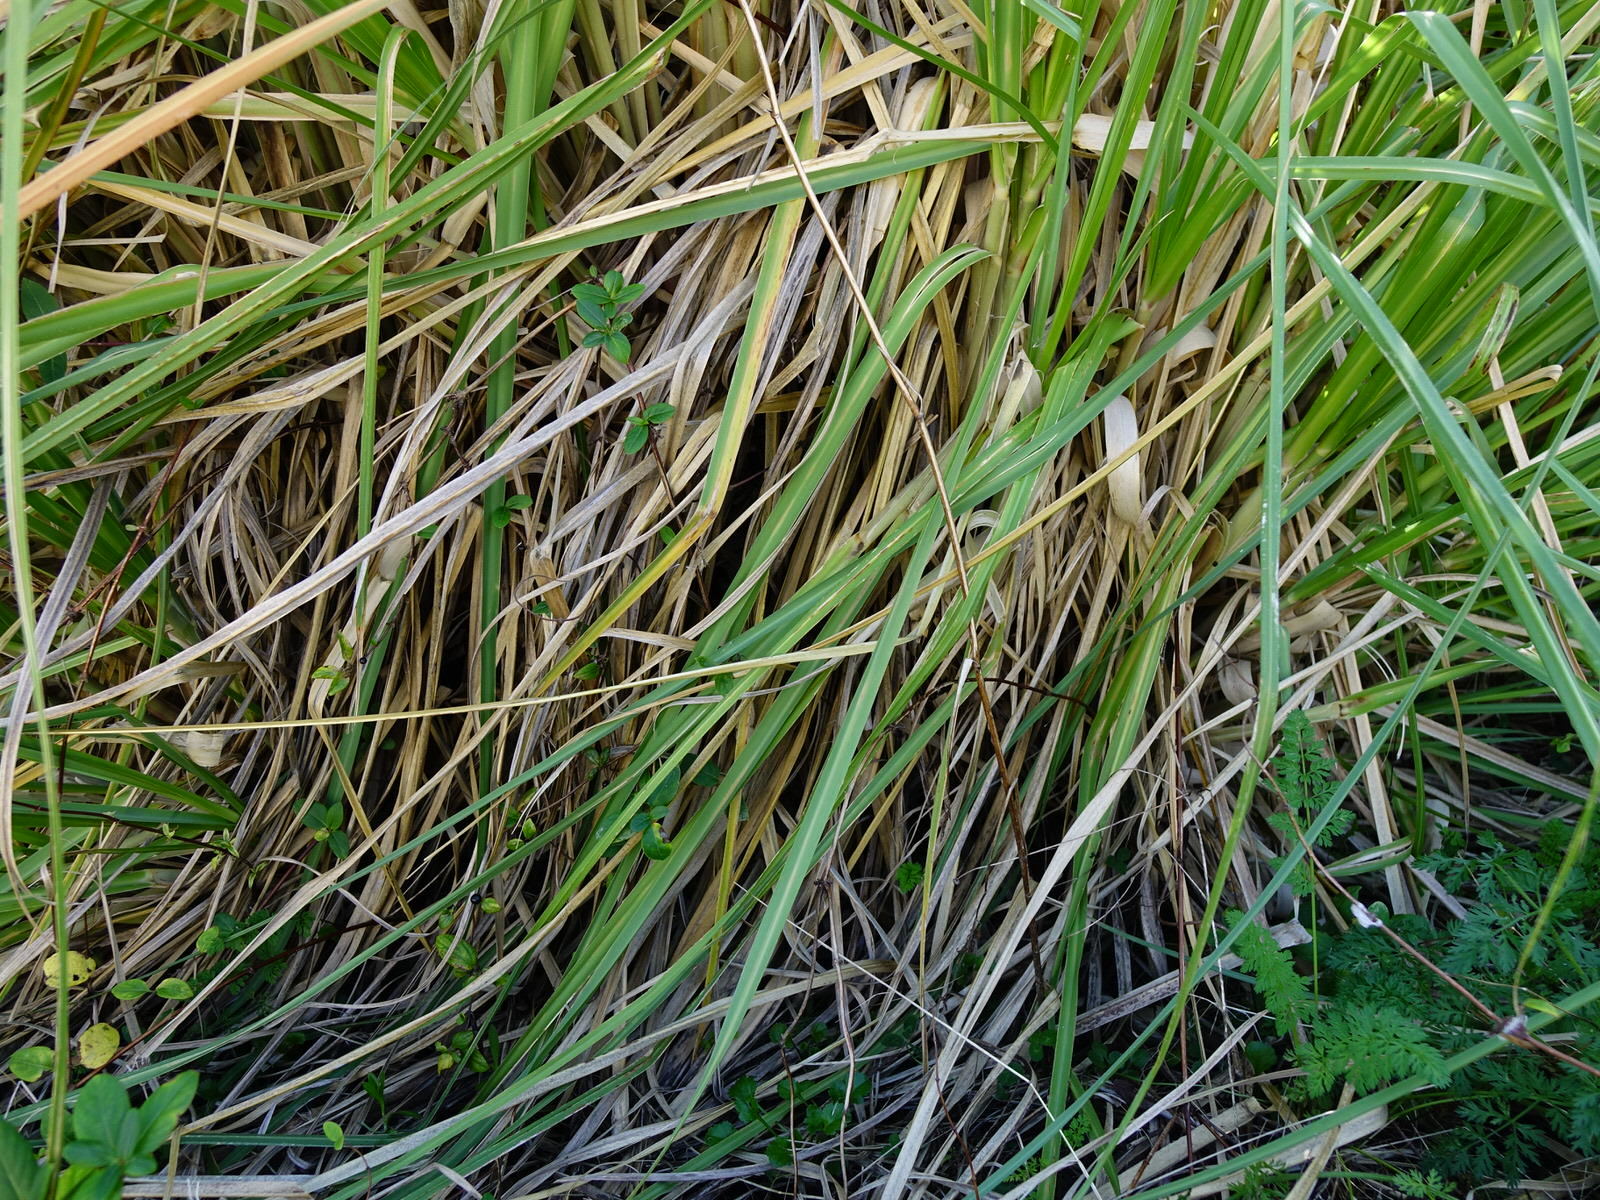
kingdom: Plantae
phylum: Tracheophyta
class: Liliopsida
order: Poales
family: Poaceae
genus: Cortaderia
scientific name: Cortaderia selloana
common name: Uruguayan pampas grass
